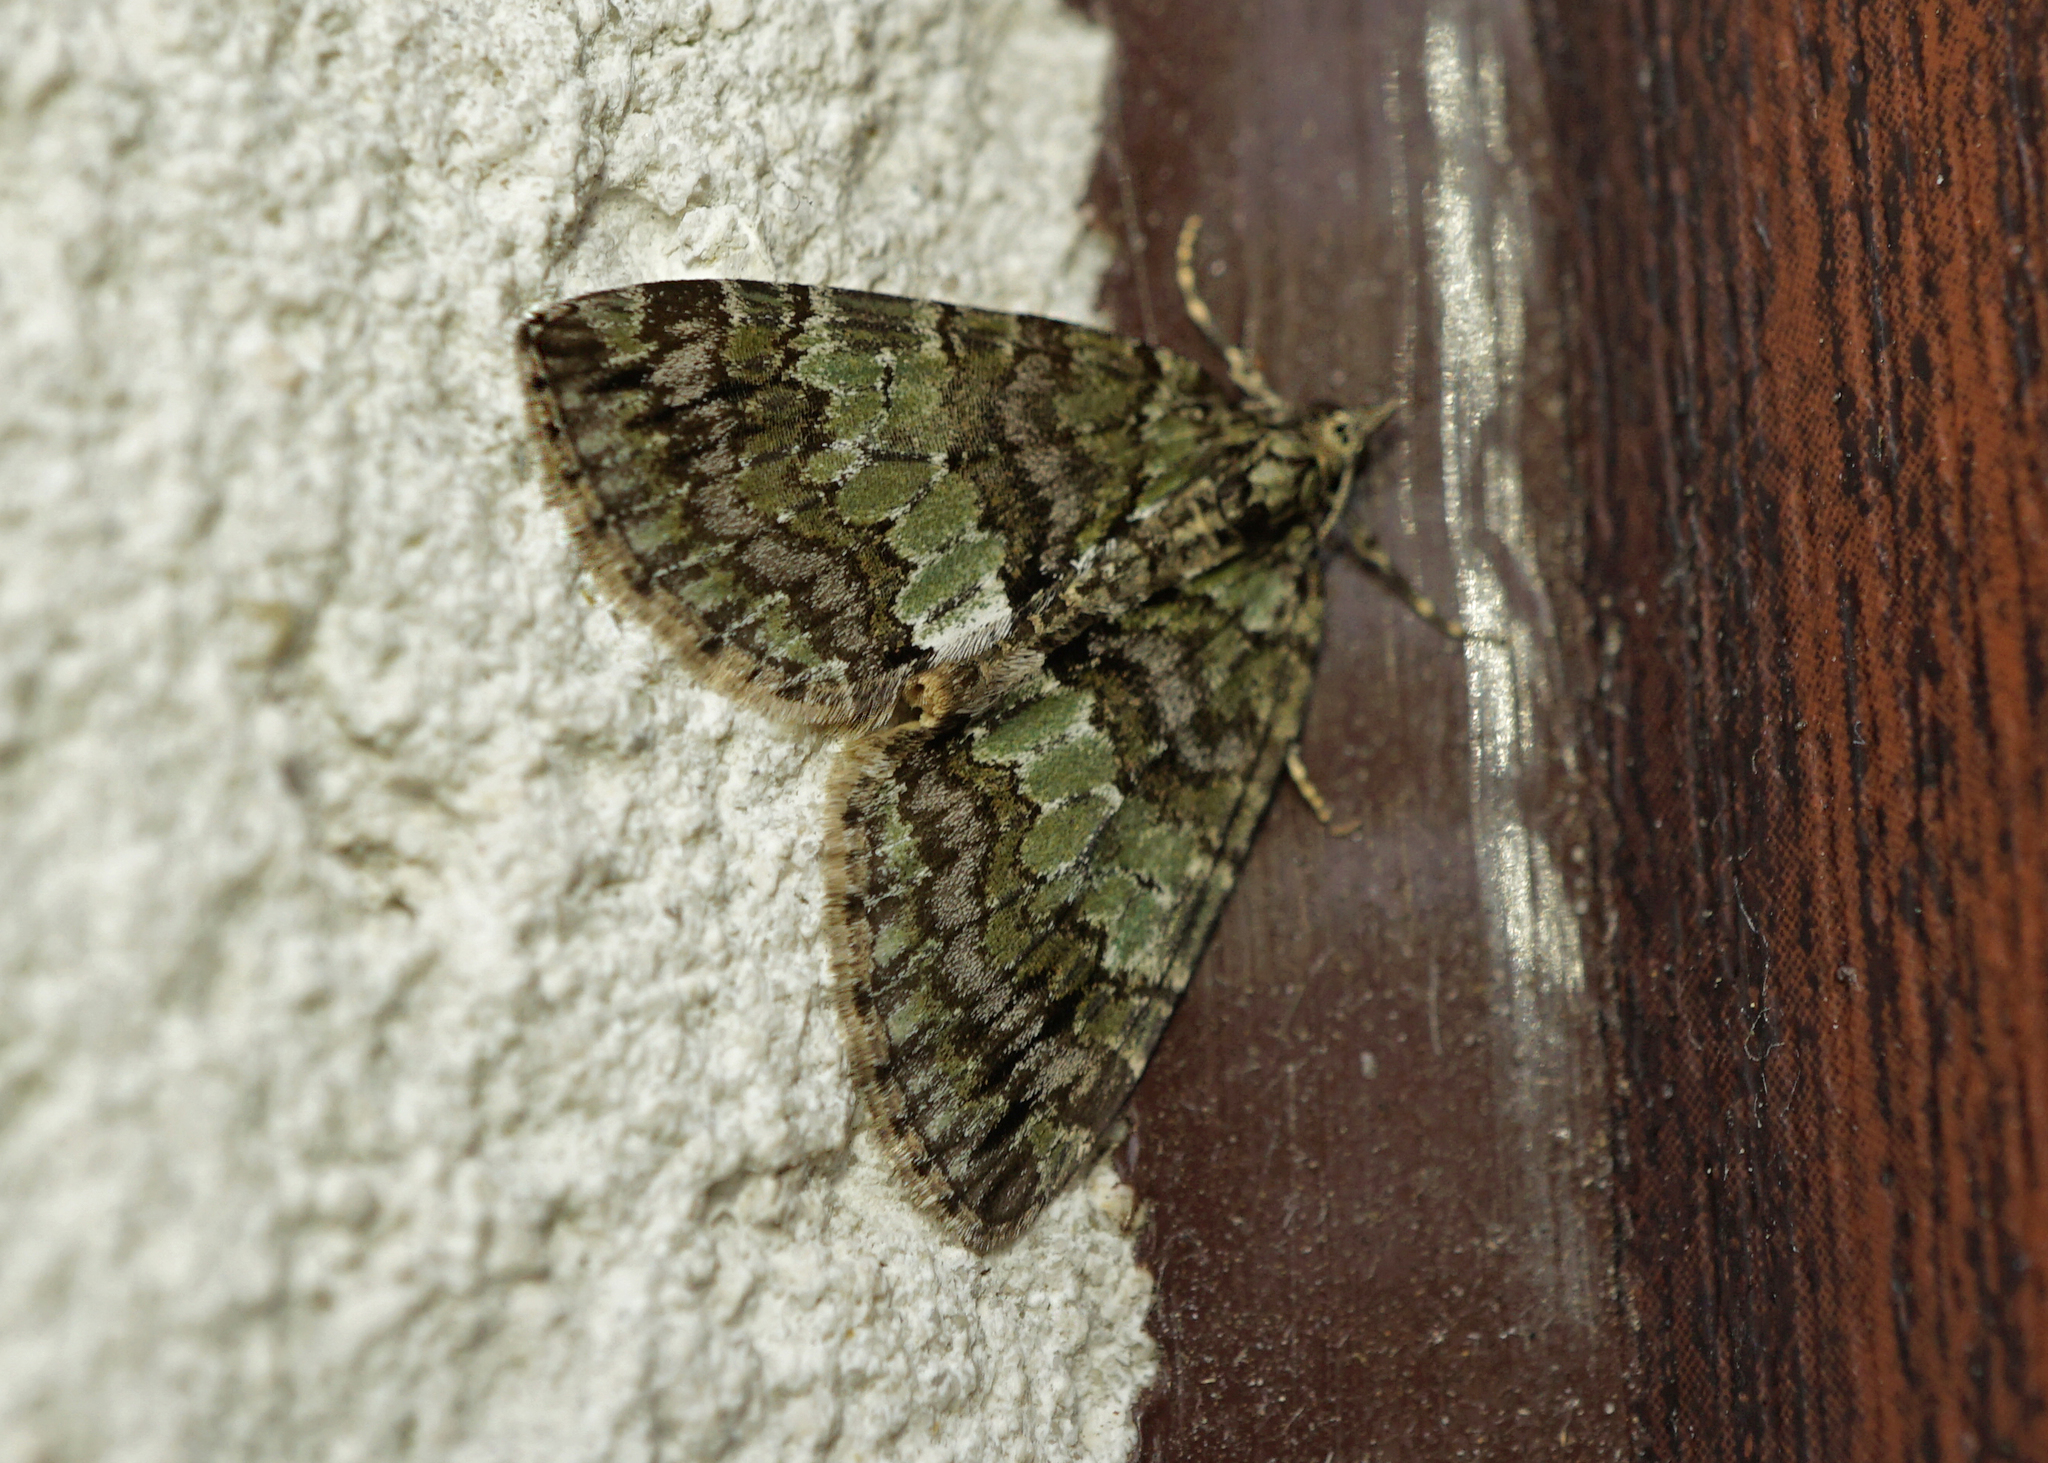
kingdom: Animalia
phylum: Arthropoda
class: Insecta
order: Lepidoptera
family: Geometridae
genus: Hydriomena
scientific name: Hydriomena impluviata
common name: May highflyer
